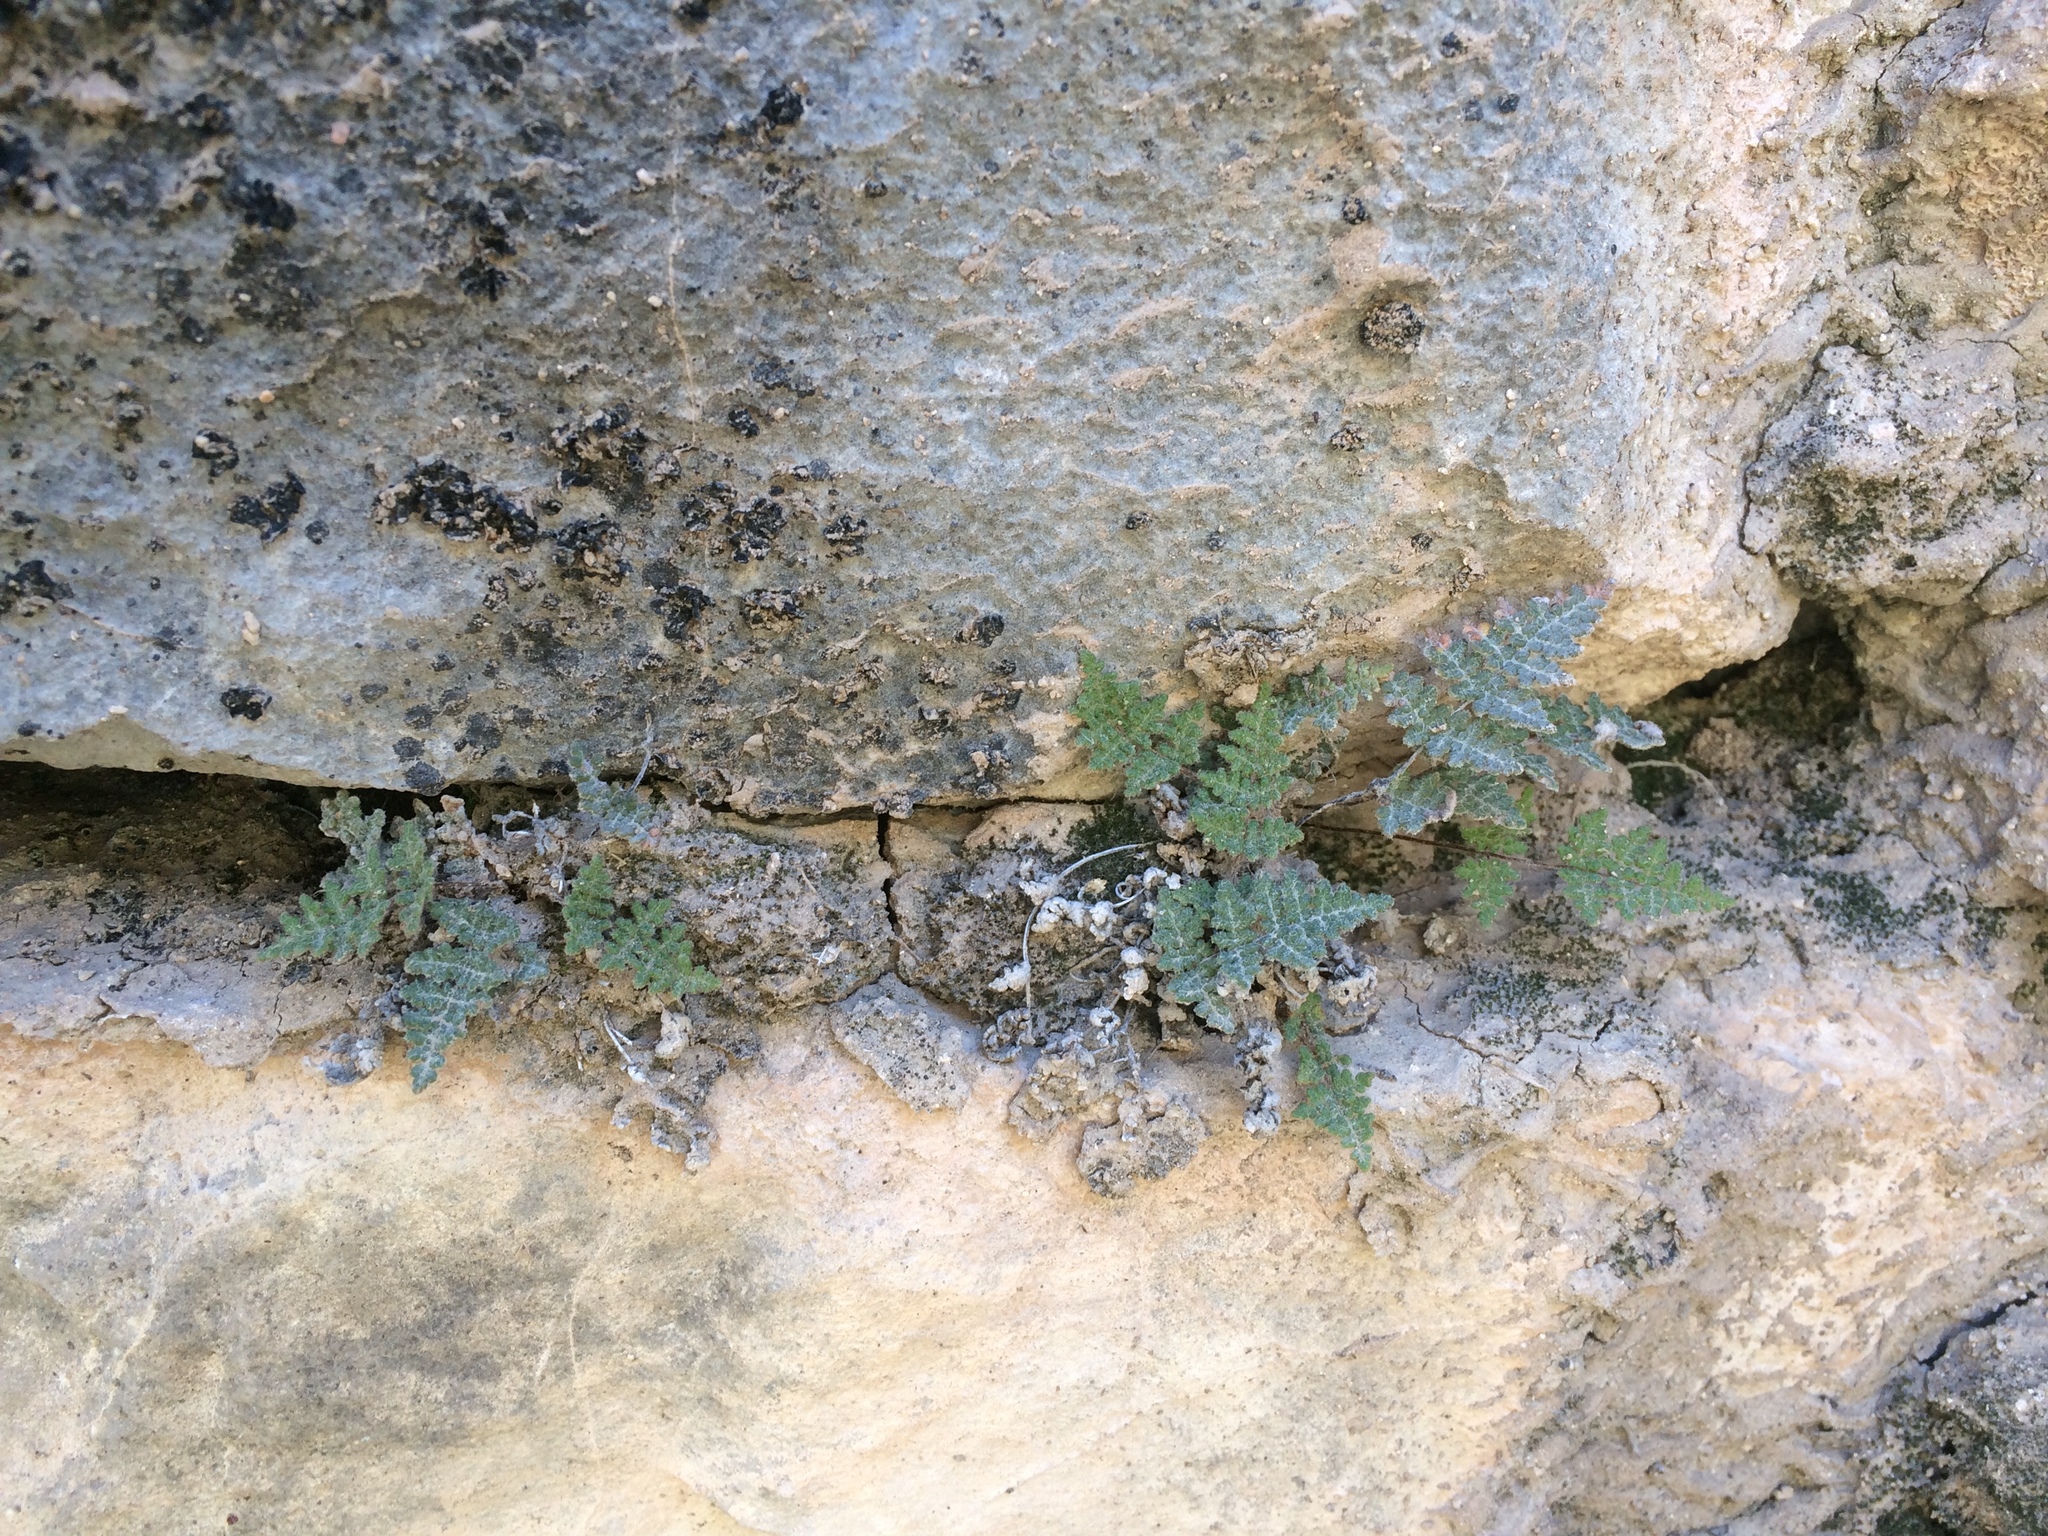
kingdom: Plantae
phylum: Tracheophyta
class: Polypodiopsida
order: Polypodiales
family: Pteridaceae
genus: Myriopteris
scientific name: Myriopteris gracilis
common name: Fee's lip fern
